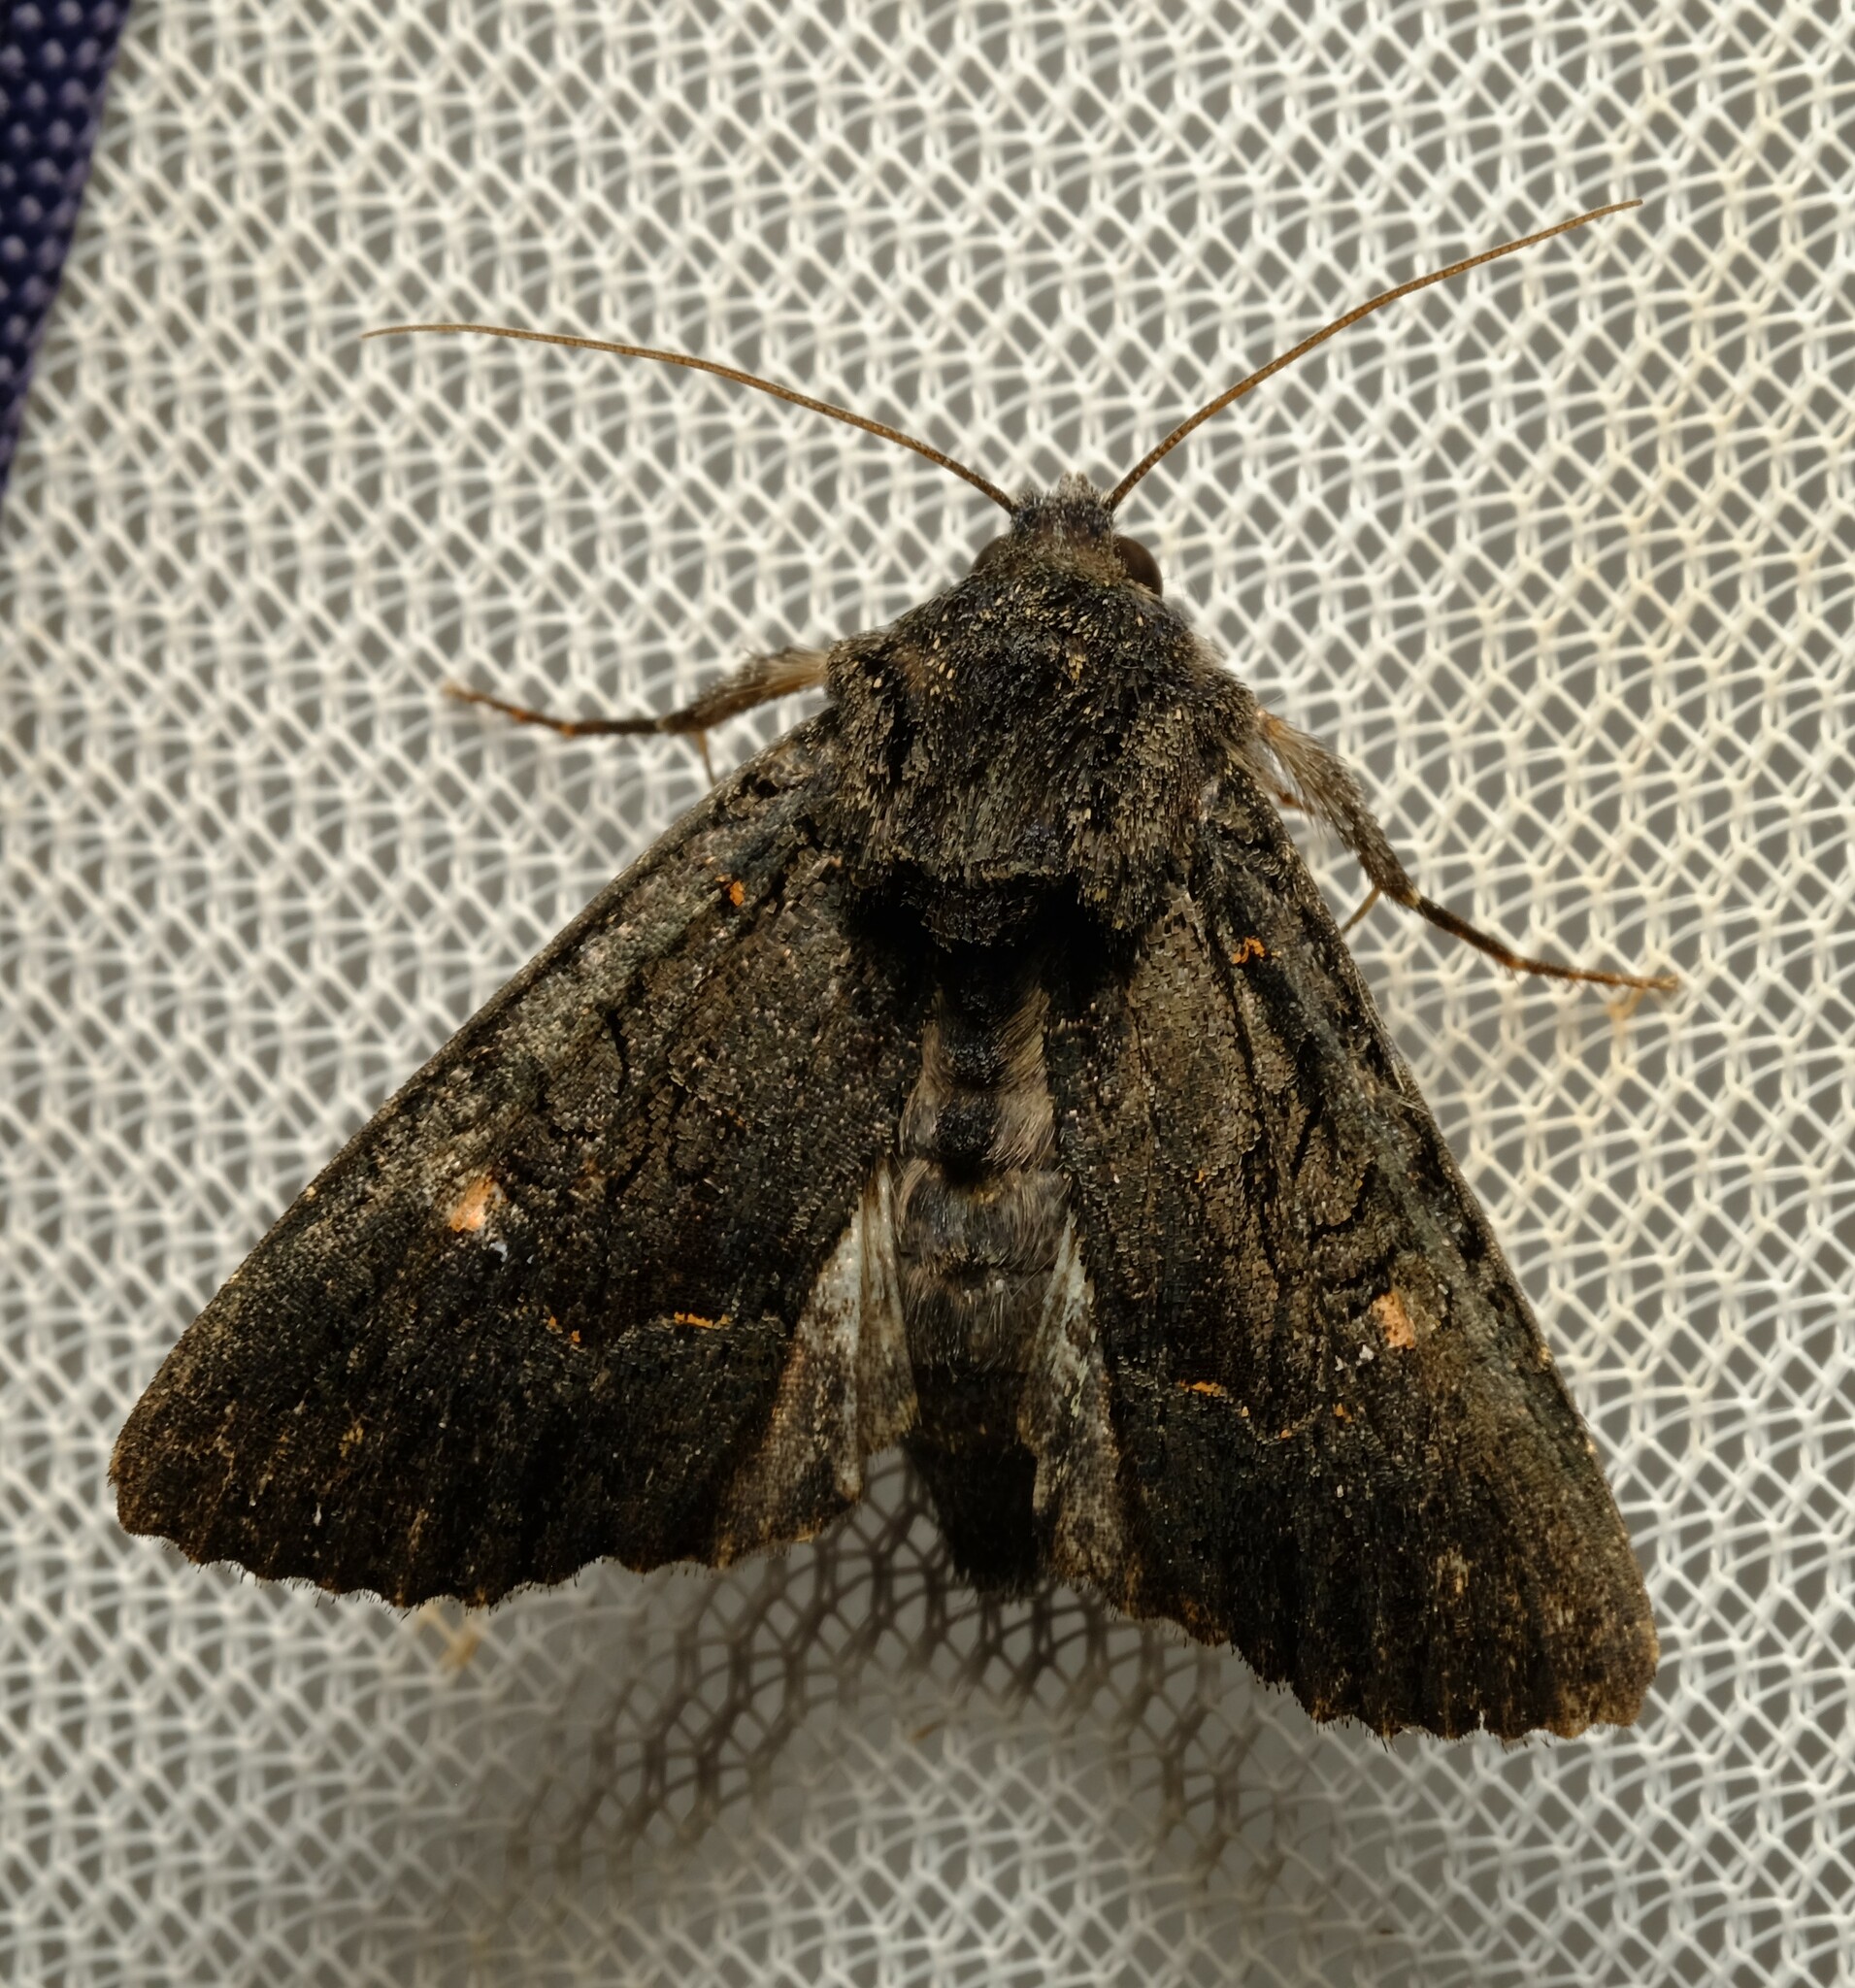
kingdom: Animalia
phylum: Arthropoda
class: Insecta
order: Lepidoptera
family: Noctuidae
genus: Neumichtis
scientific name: Neumichtis nigerrima
